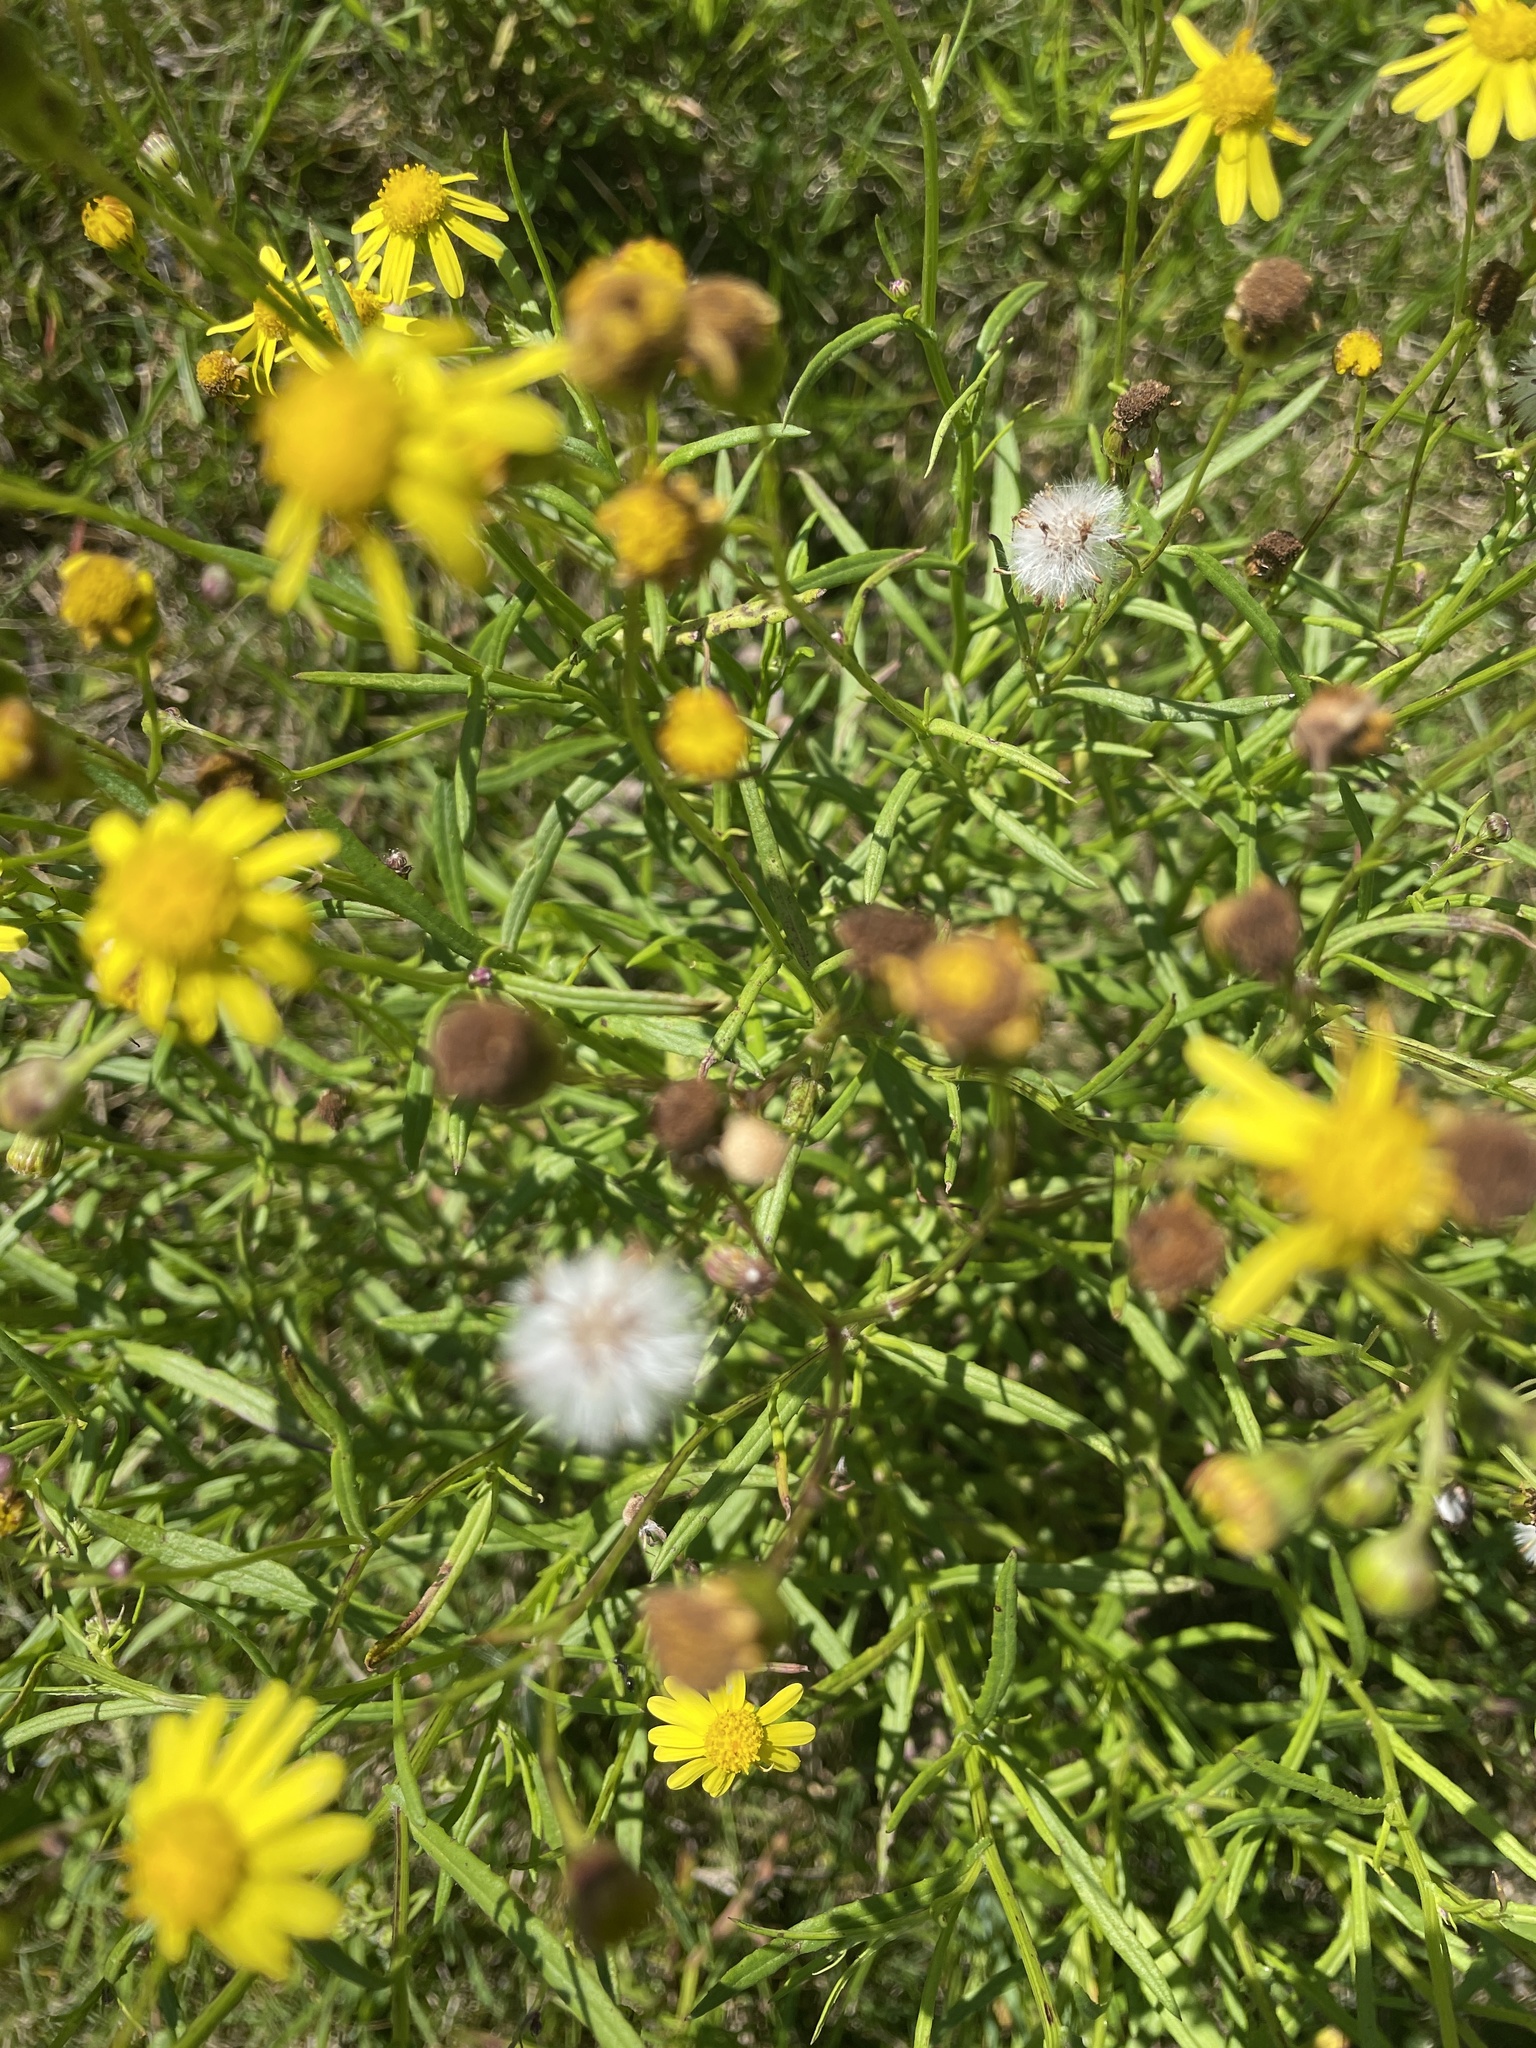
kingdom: Plantae
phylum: Tracheophyta
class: Magnoliopsida
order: Asterales
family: Asteraceae
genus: Senecio
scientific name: Senecio madagascariensis
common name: Madagascar ragwort
